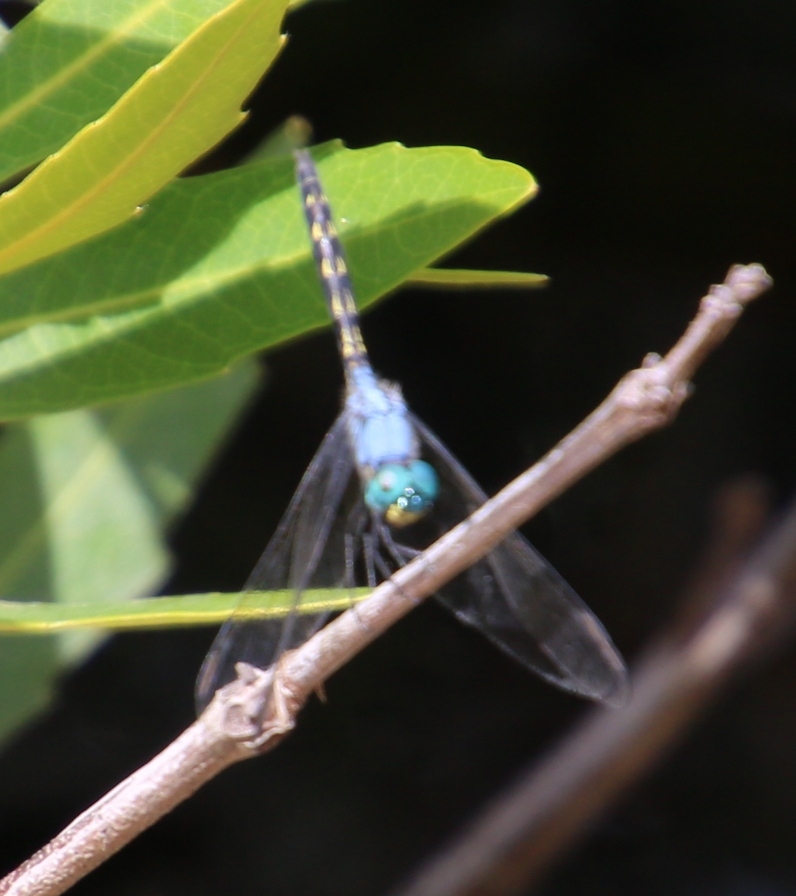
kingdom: Animalia
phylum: Arthropoda
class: Insecta
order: Odonata
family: Libellulidae
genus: Trithemis
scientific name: Trithemis stictica
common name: Jaunty dropwing
